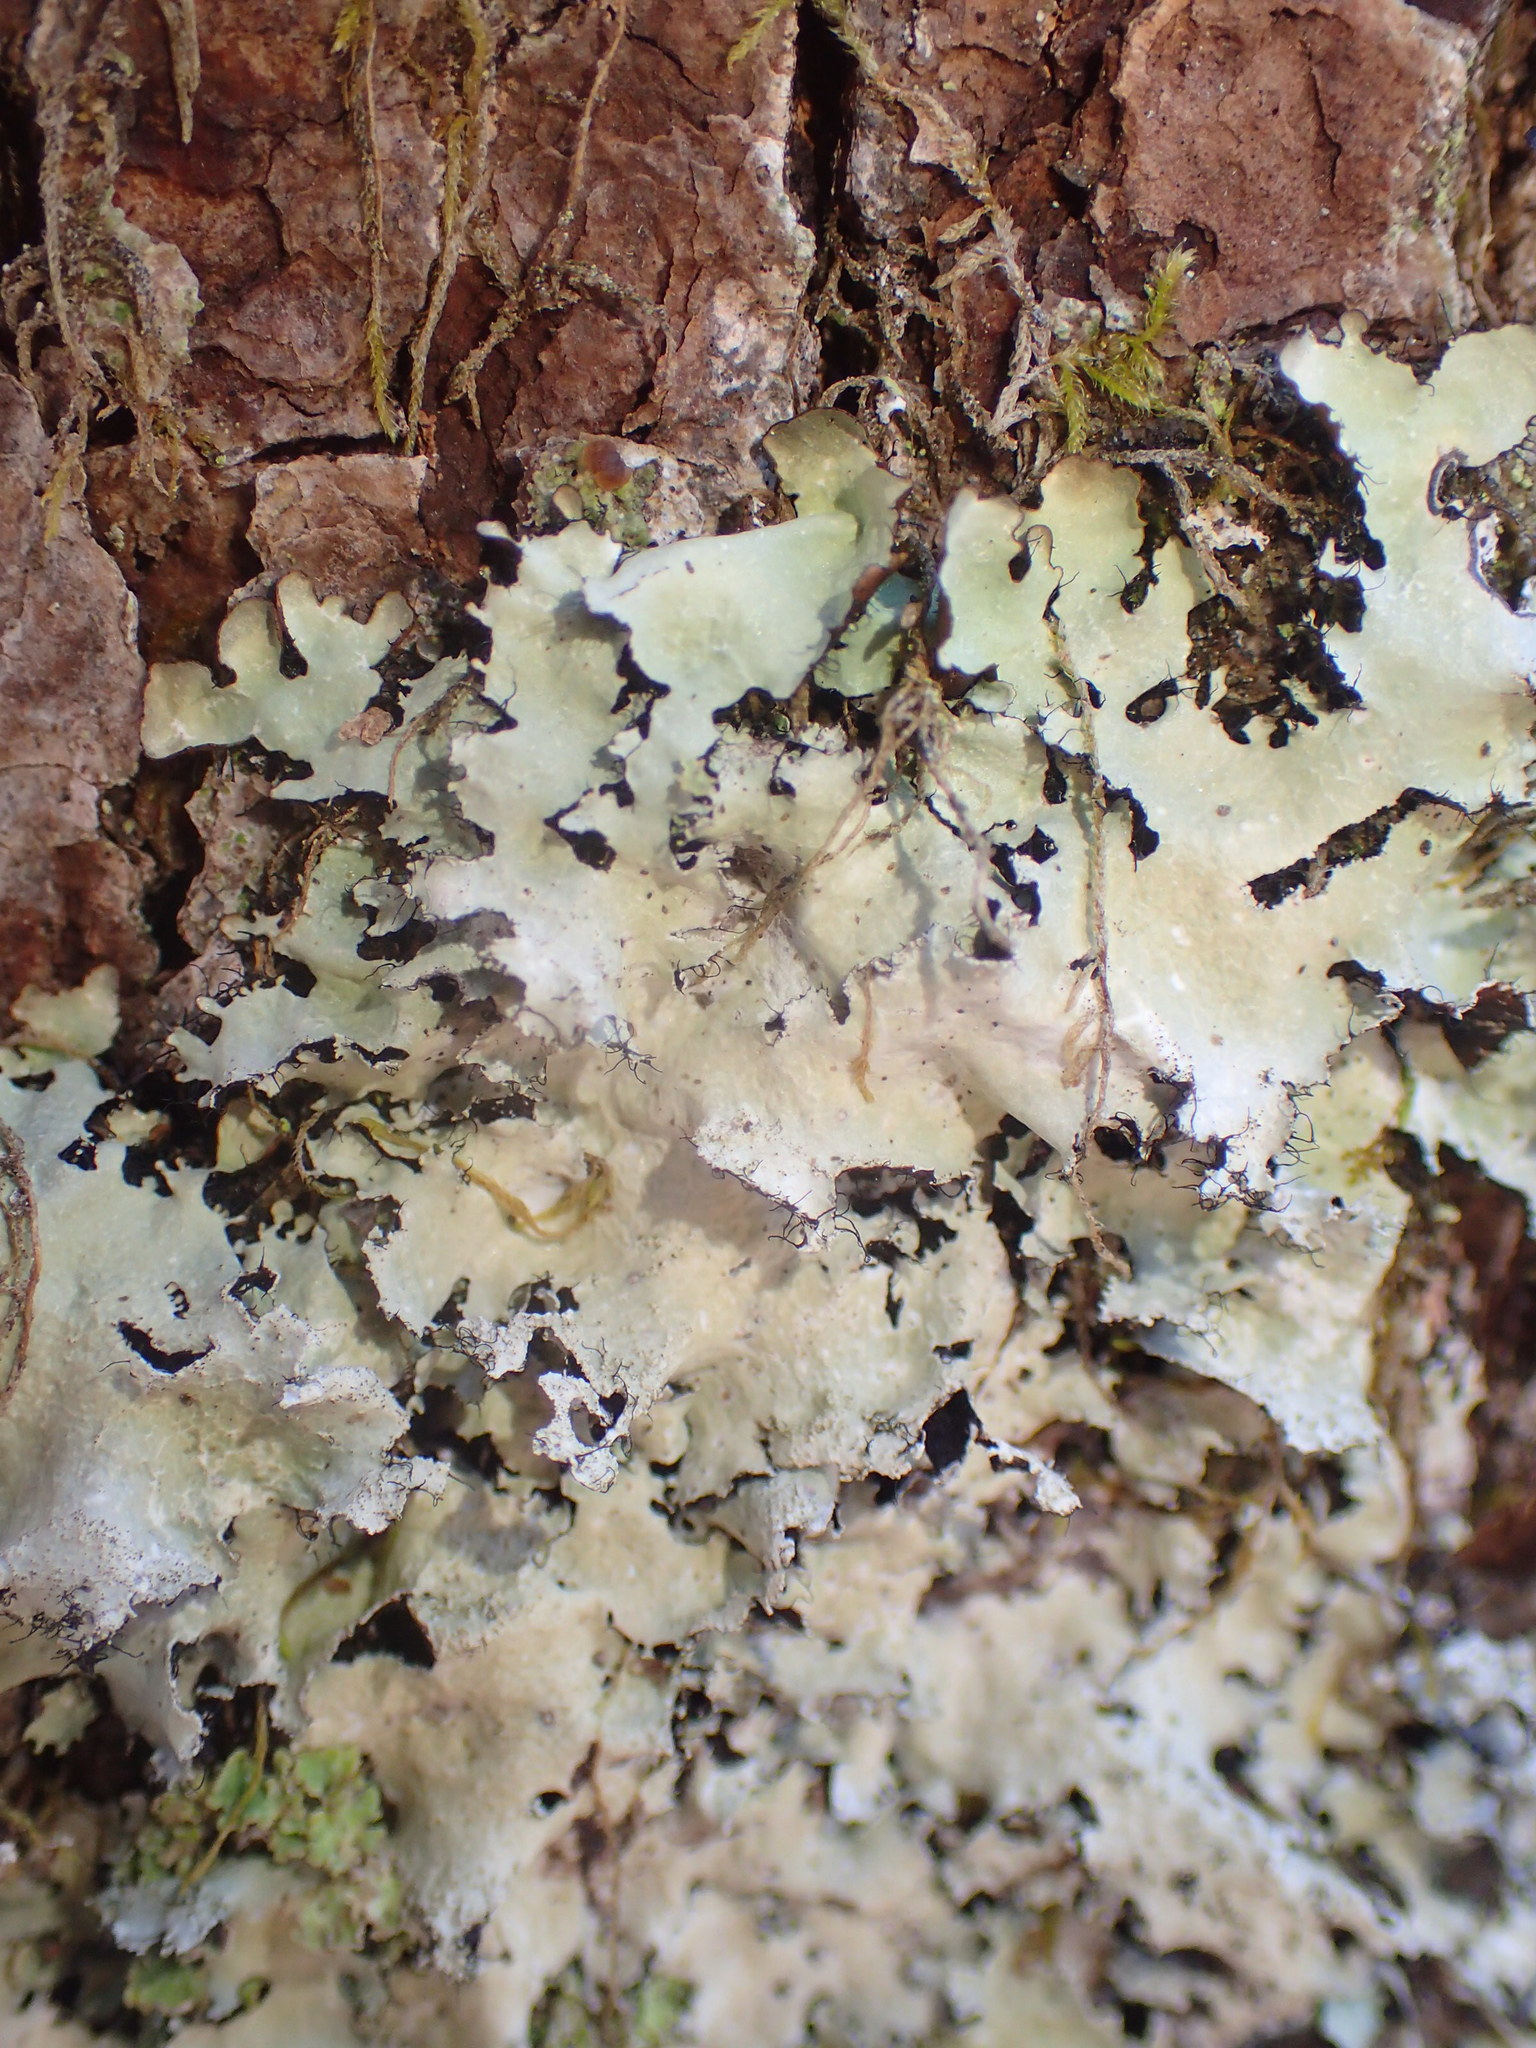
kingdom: Fungi
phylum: Ascomycota
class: Lecanoromycetes
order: Lecanorales
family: Parmeliaceae
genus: Parmotrema
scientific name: Parmotrema crinitum
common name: Salted ruffle lichen
